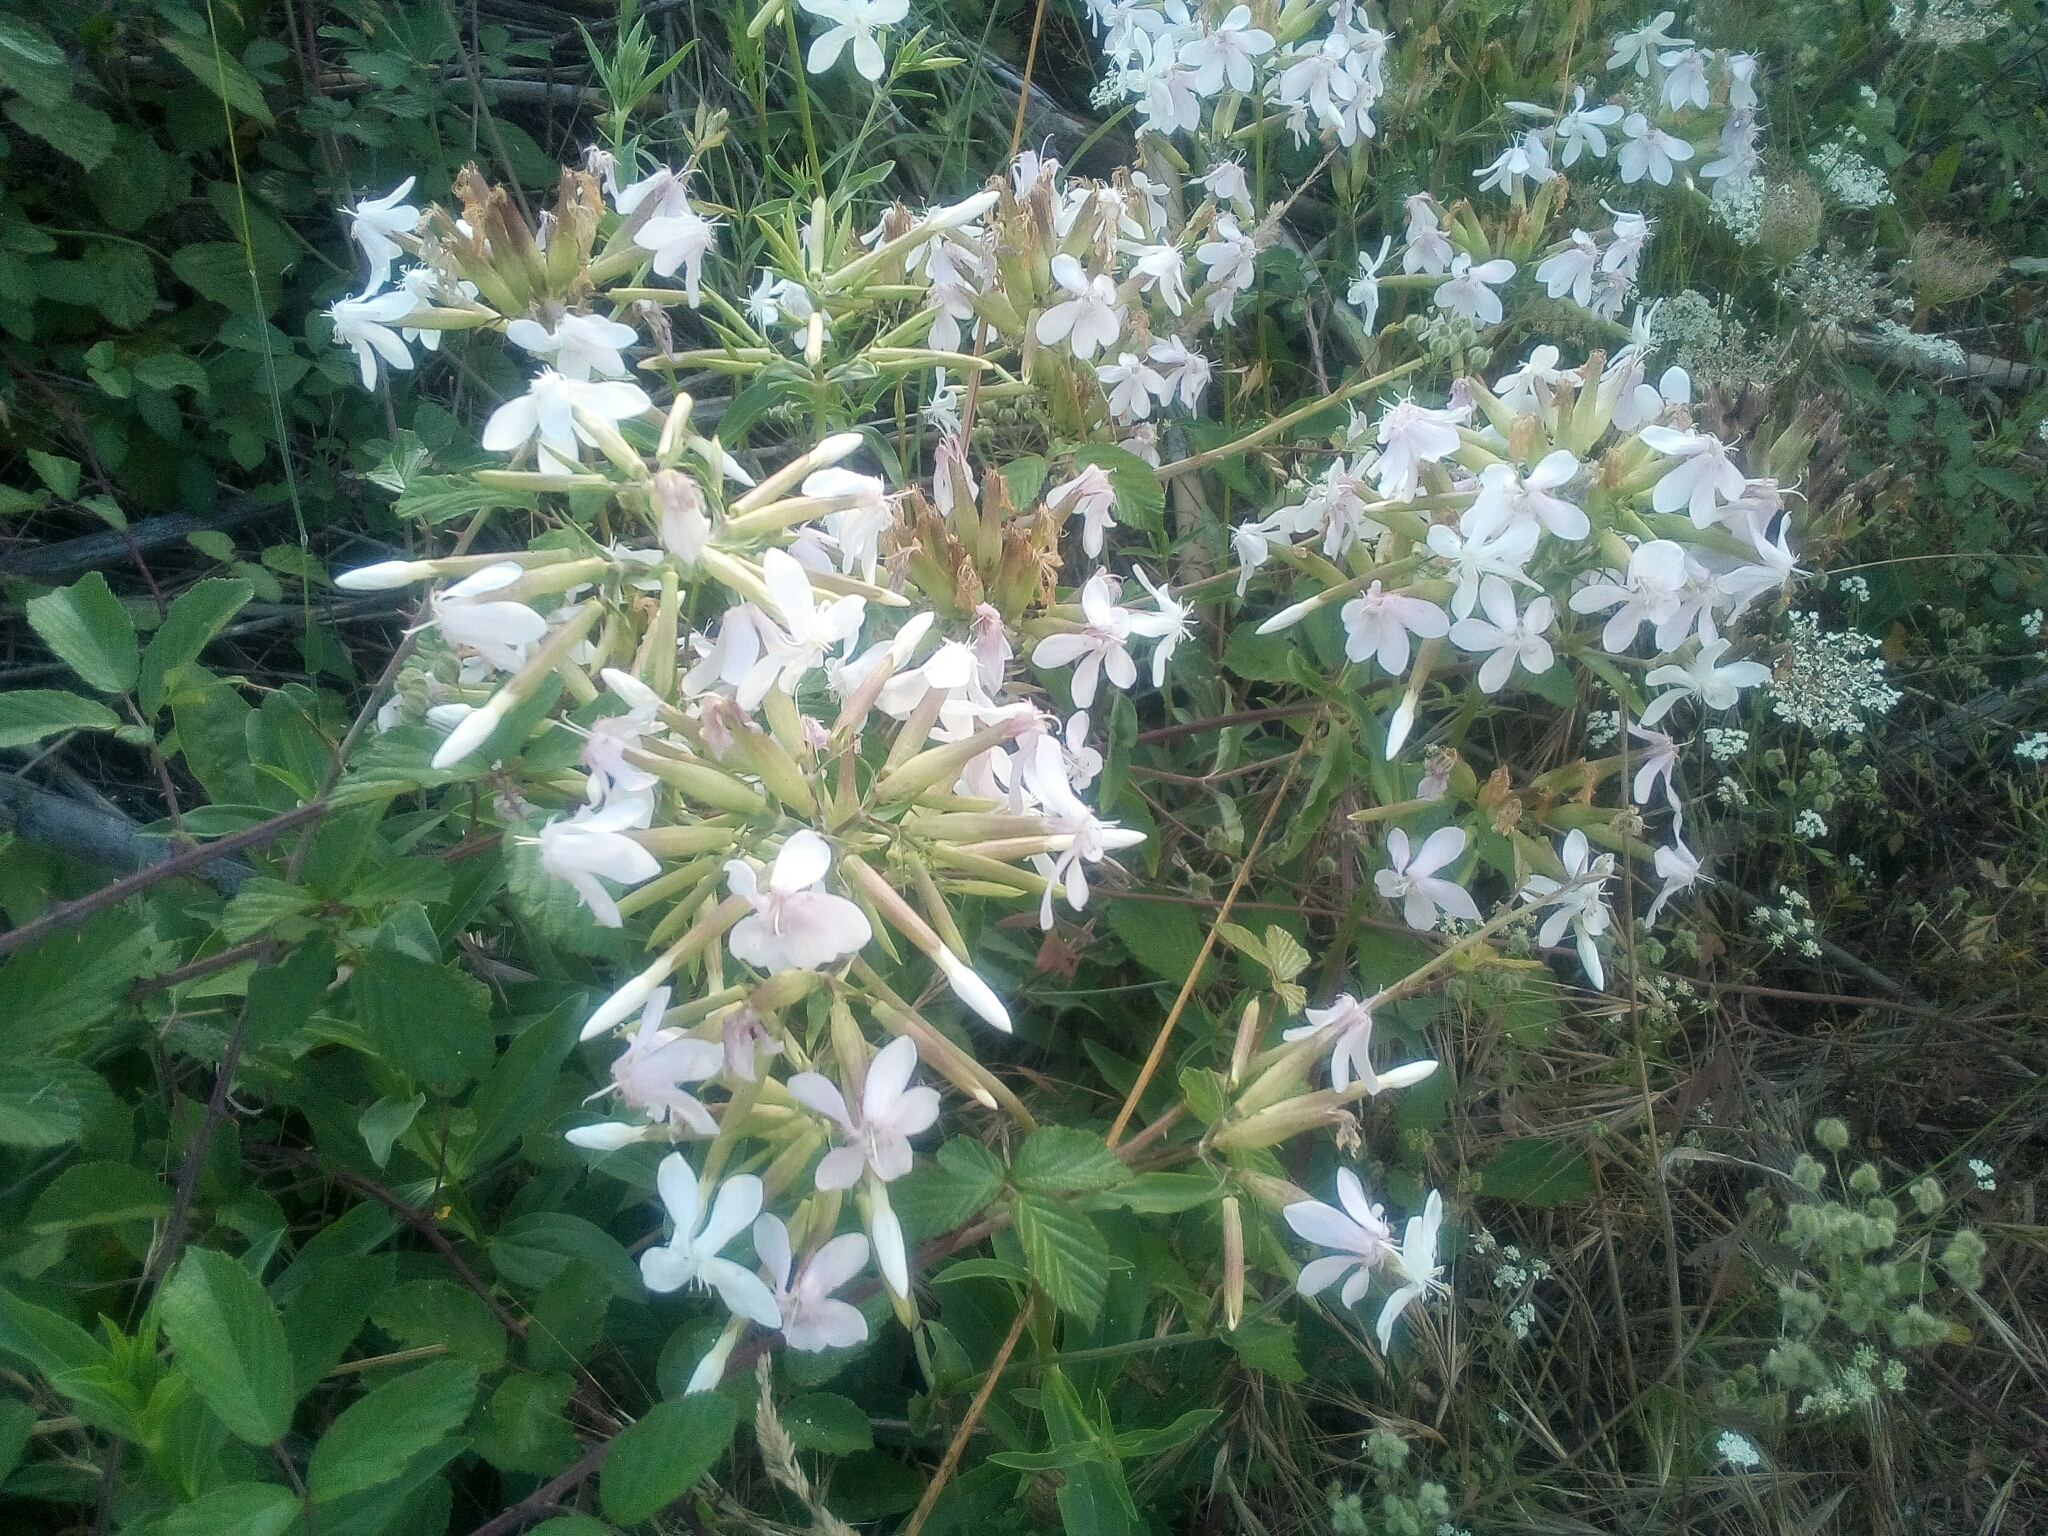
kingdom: Plantae
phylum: Tracheophyta
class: Magnoliopsida
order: Caryophyllales
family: Caryophyllaceae
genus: Saponaria
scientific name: Saponaria officinalis
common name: Soapwort
